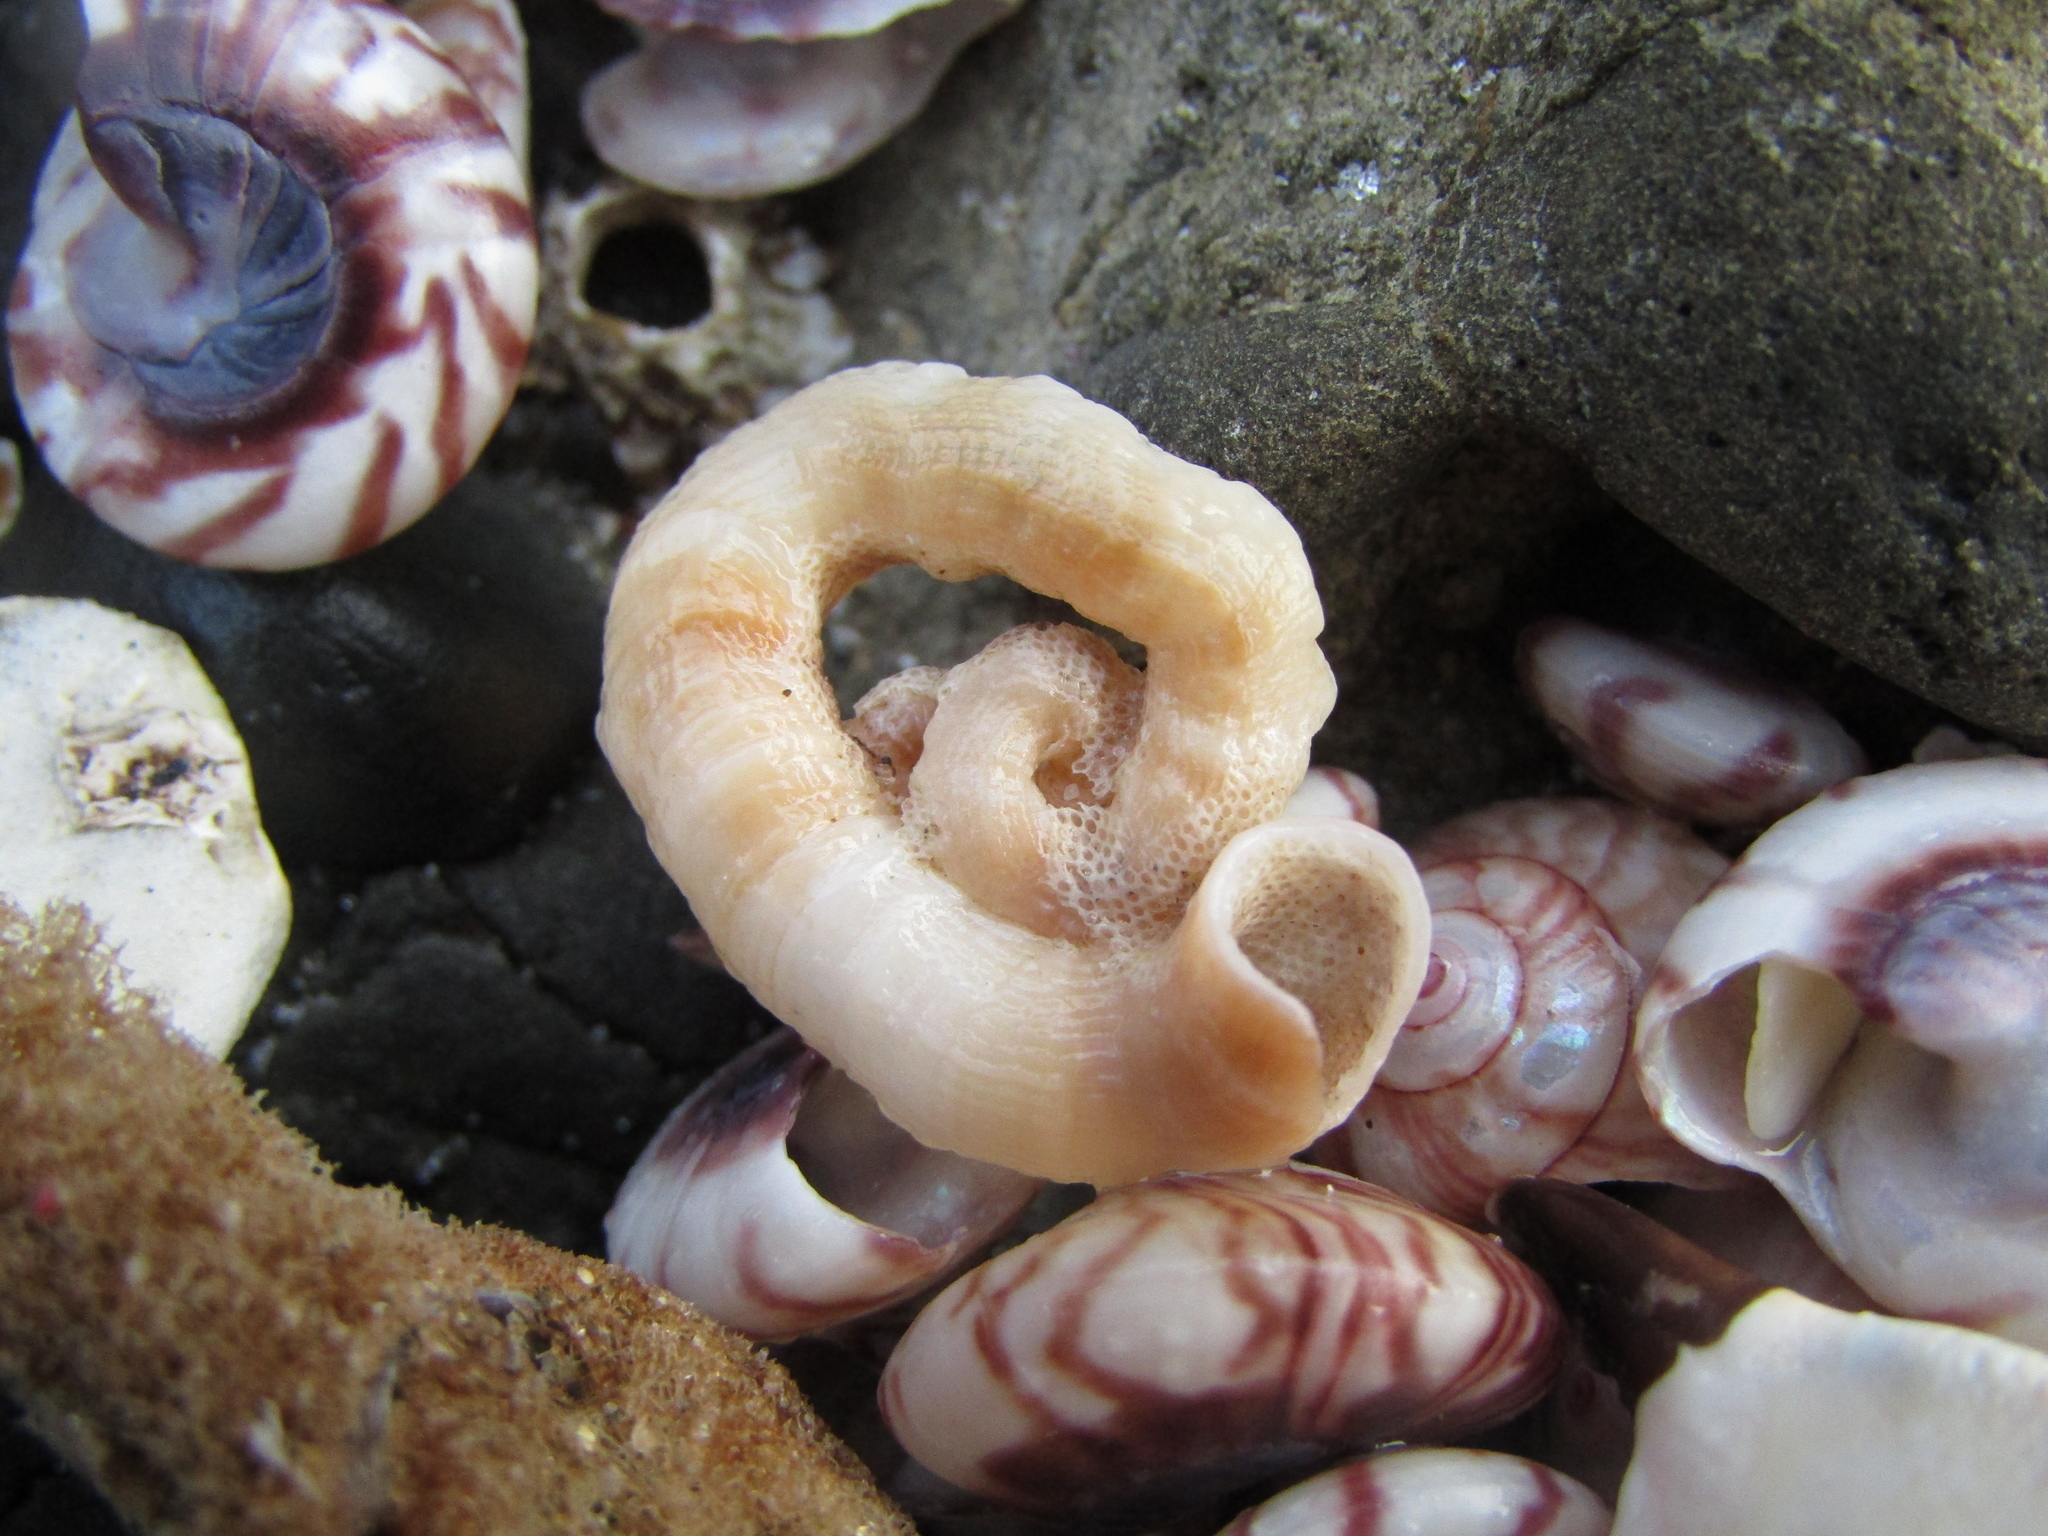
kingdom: Animalia
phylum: Mollusca
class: Gastropoda
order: Littorinimorpha
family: Vermetidae
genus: Thylacodes
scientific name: Thylacodes aotearoicus
